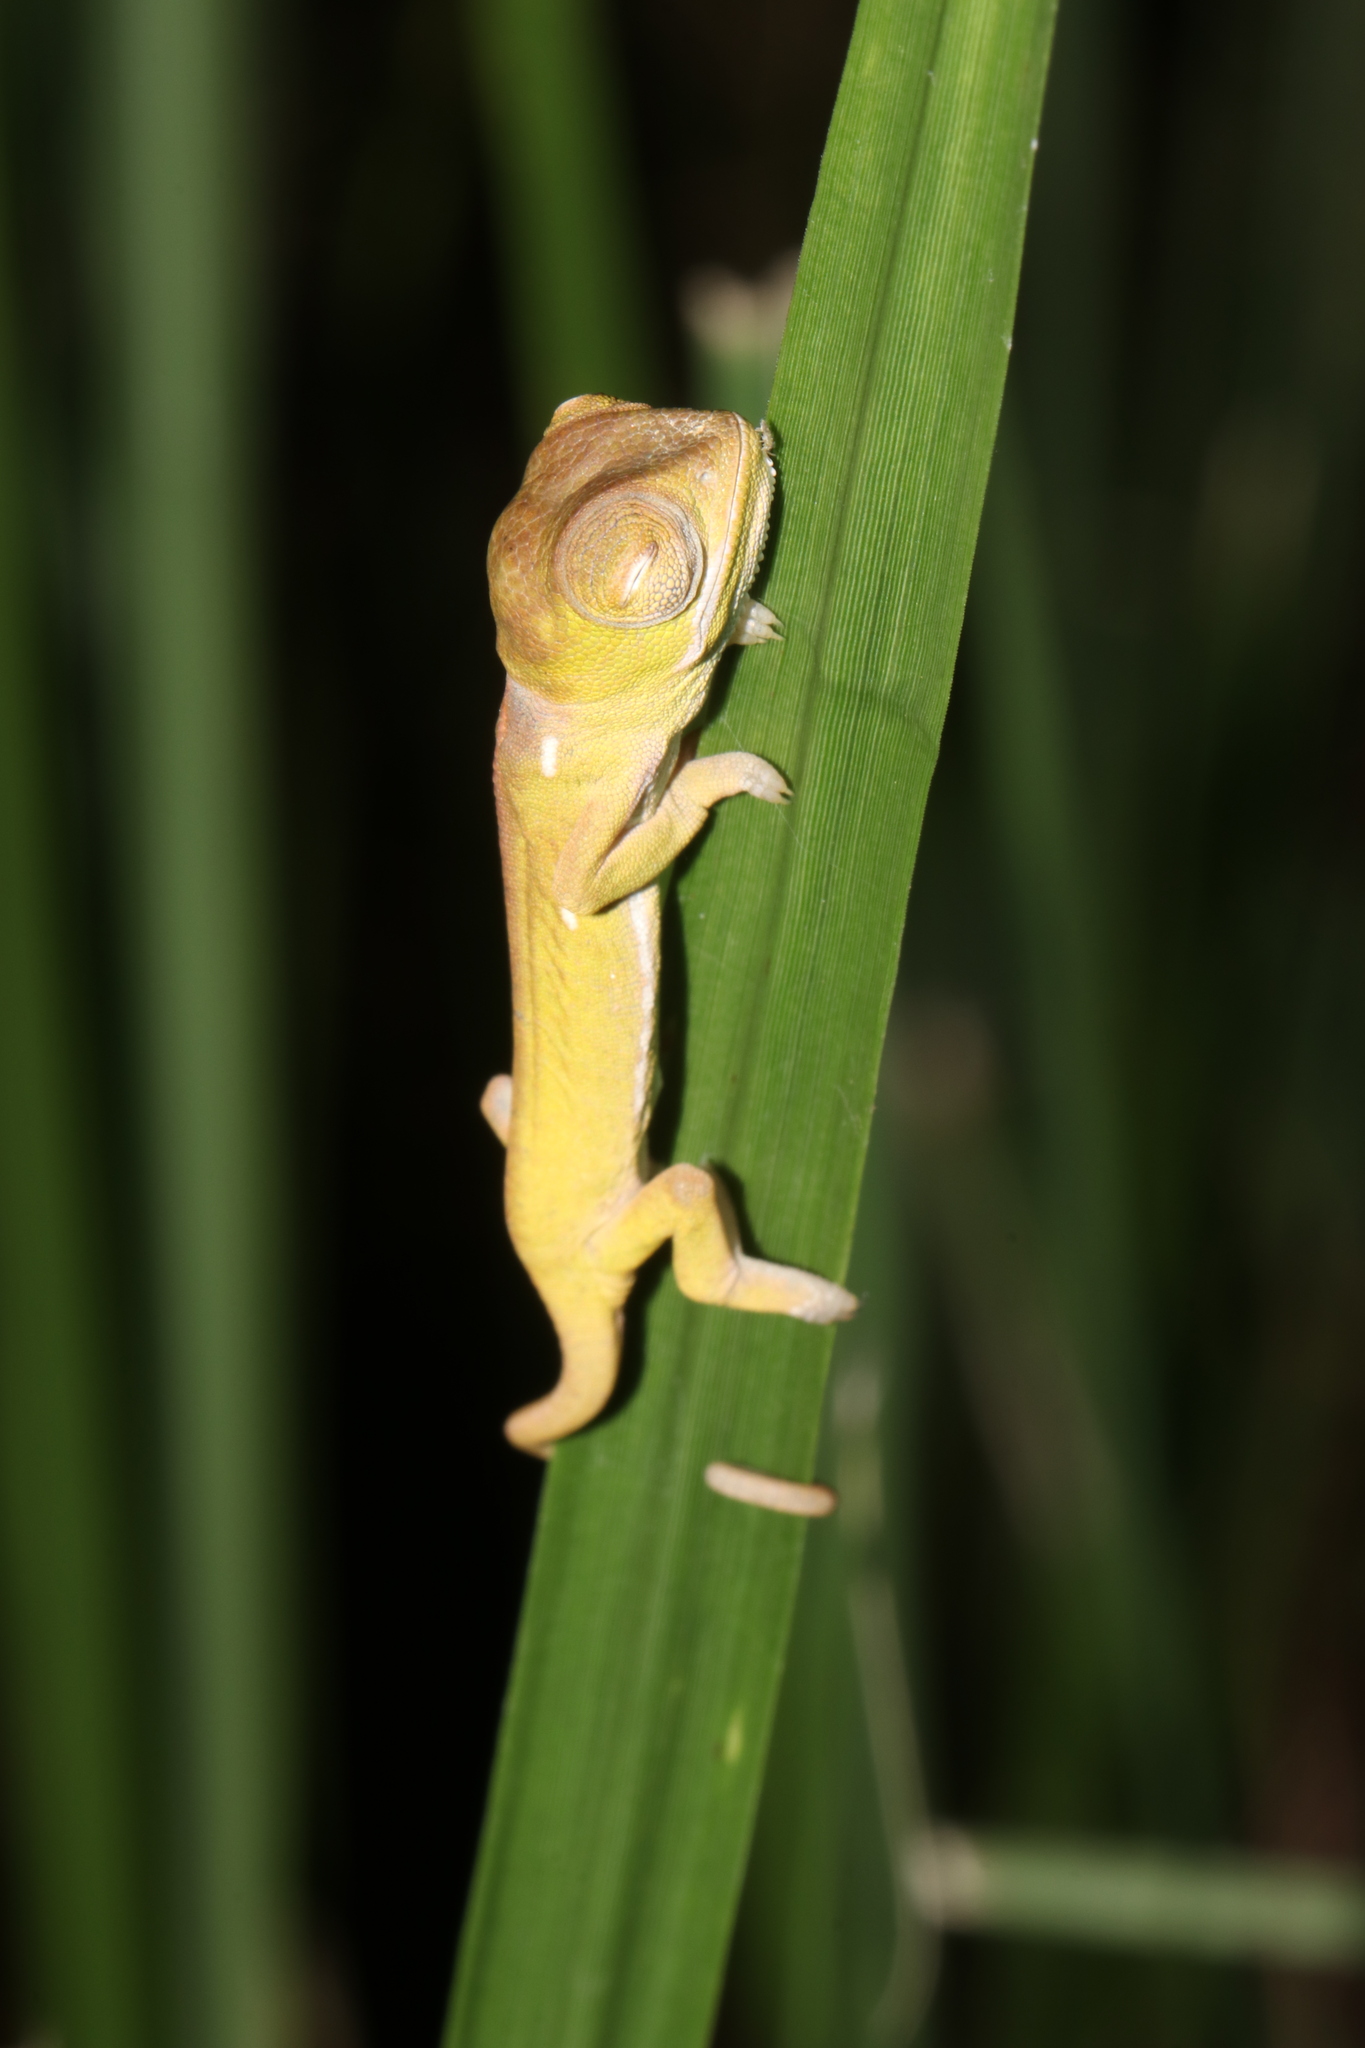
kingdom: Animalia
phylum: Chordata
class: Squamata
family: Chamaeleonidae
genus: Chamaeleo
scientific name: Chamaeleo dilepis
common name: Flapneck chameleon
